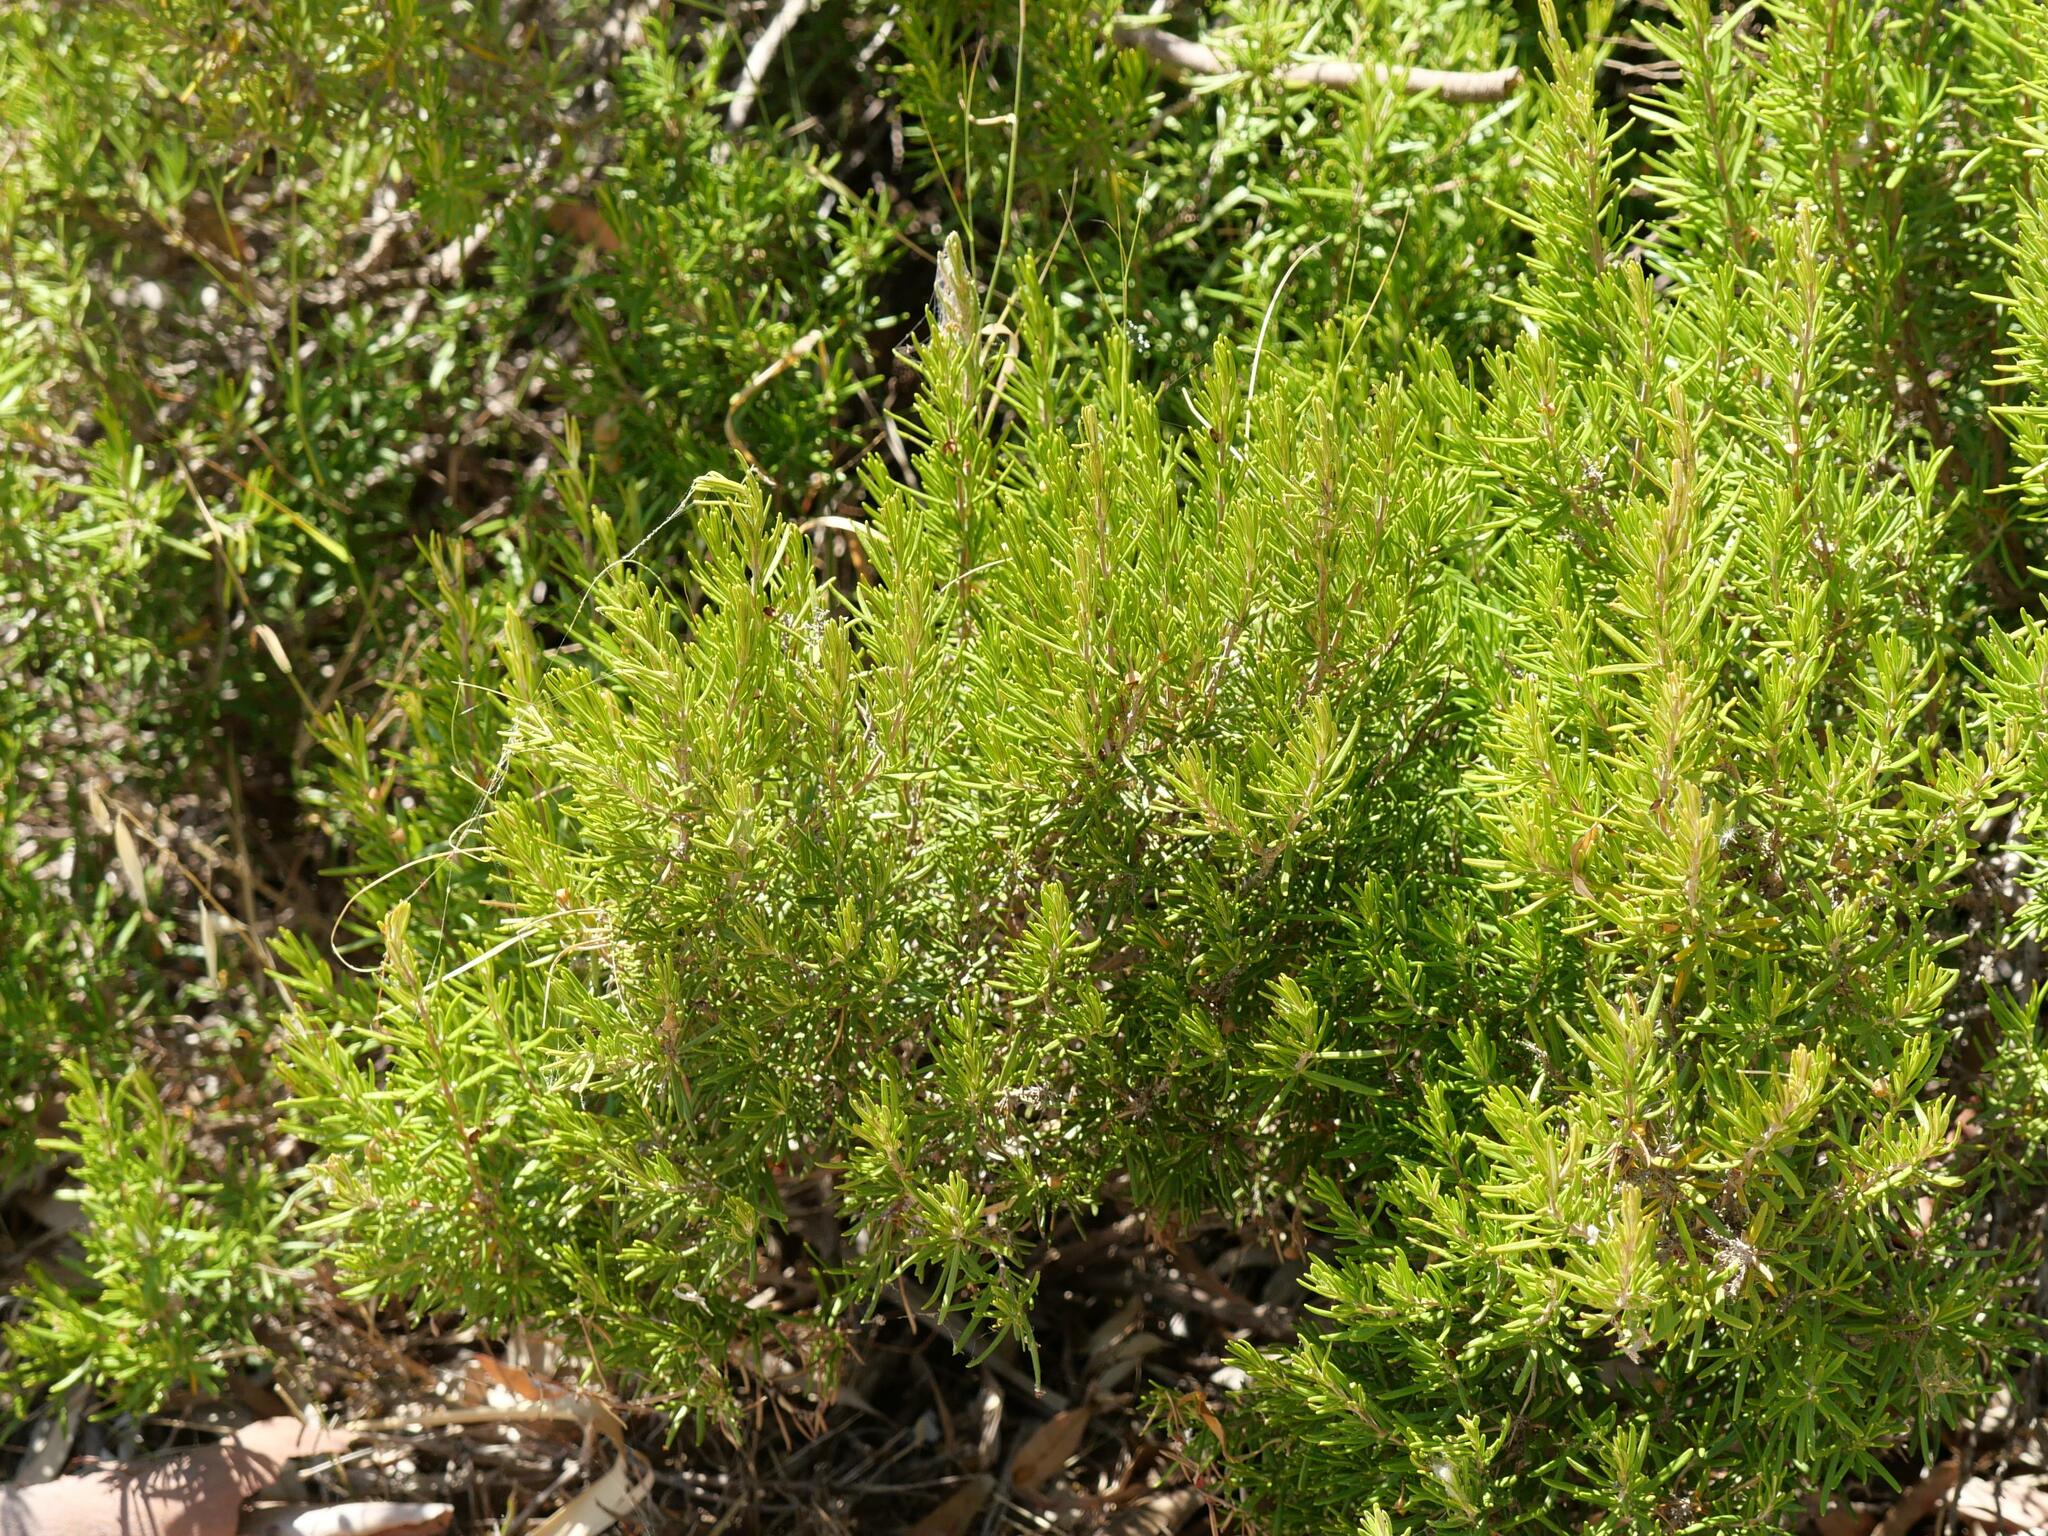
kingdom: Plantae
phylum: Tracheophyta
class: Magnoliopsida
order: Lamiales
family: Lamiaceae
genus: Salvia
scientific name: Salvia rosmarinus
